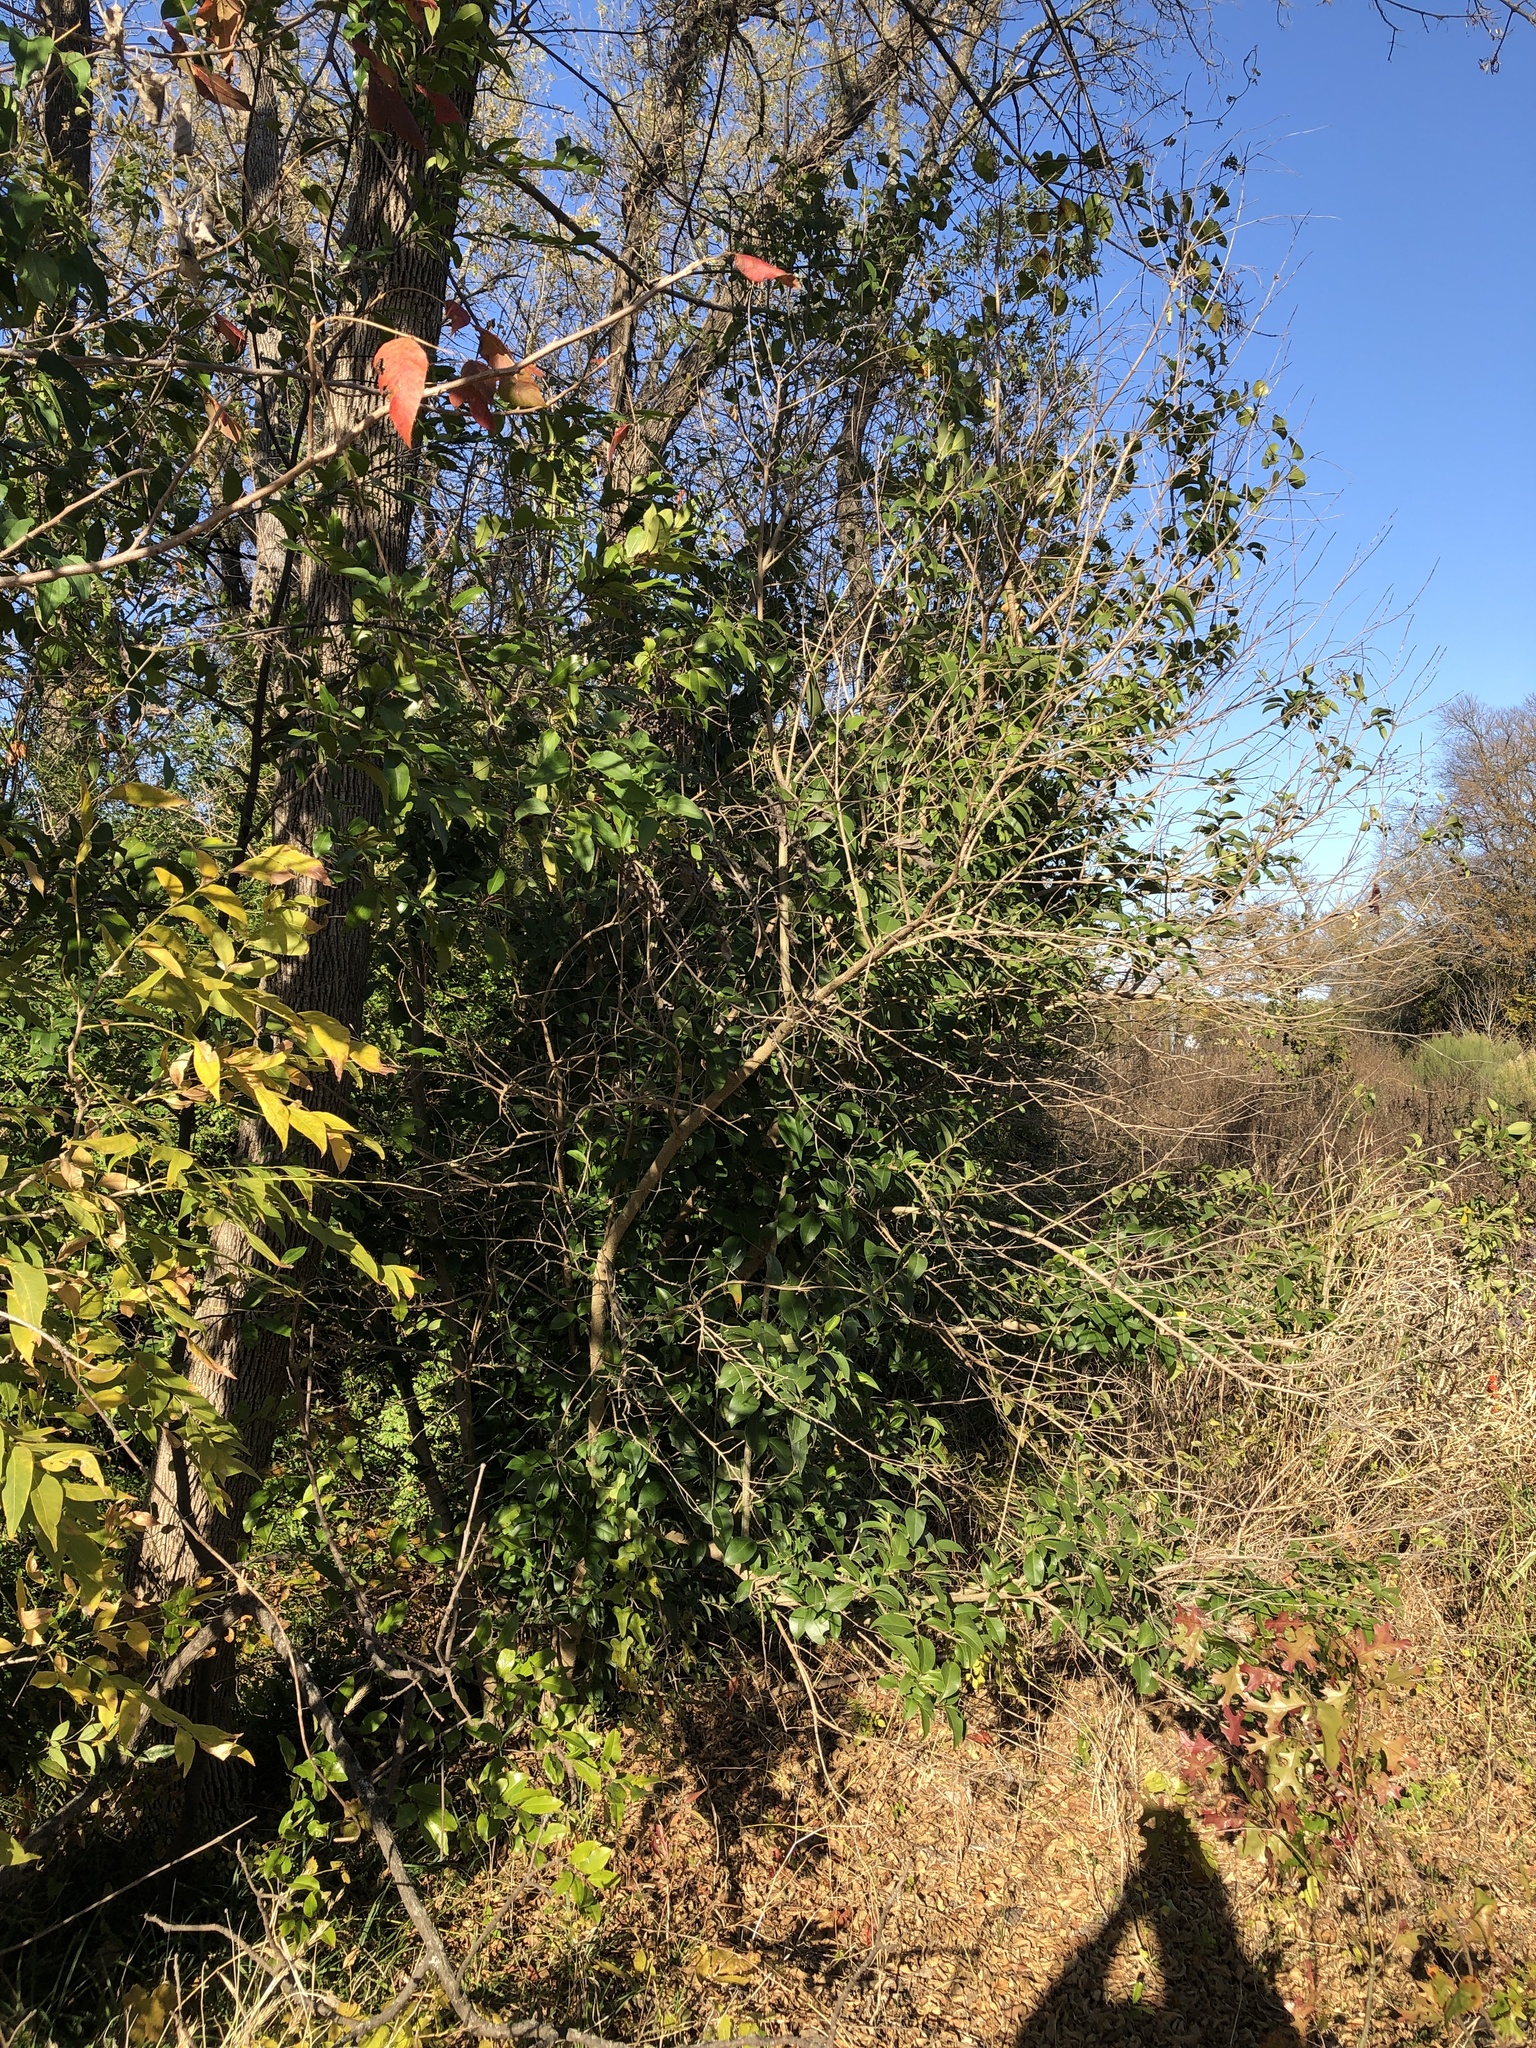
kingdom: Plantae
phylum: Tracheophyta
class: Magnoliopsida
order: Lamiales
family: Oleaceae
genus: Ligustrum
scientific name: Ligustrum lucidum
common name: Glossy privet
